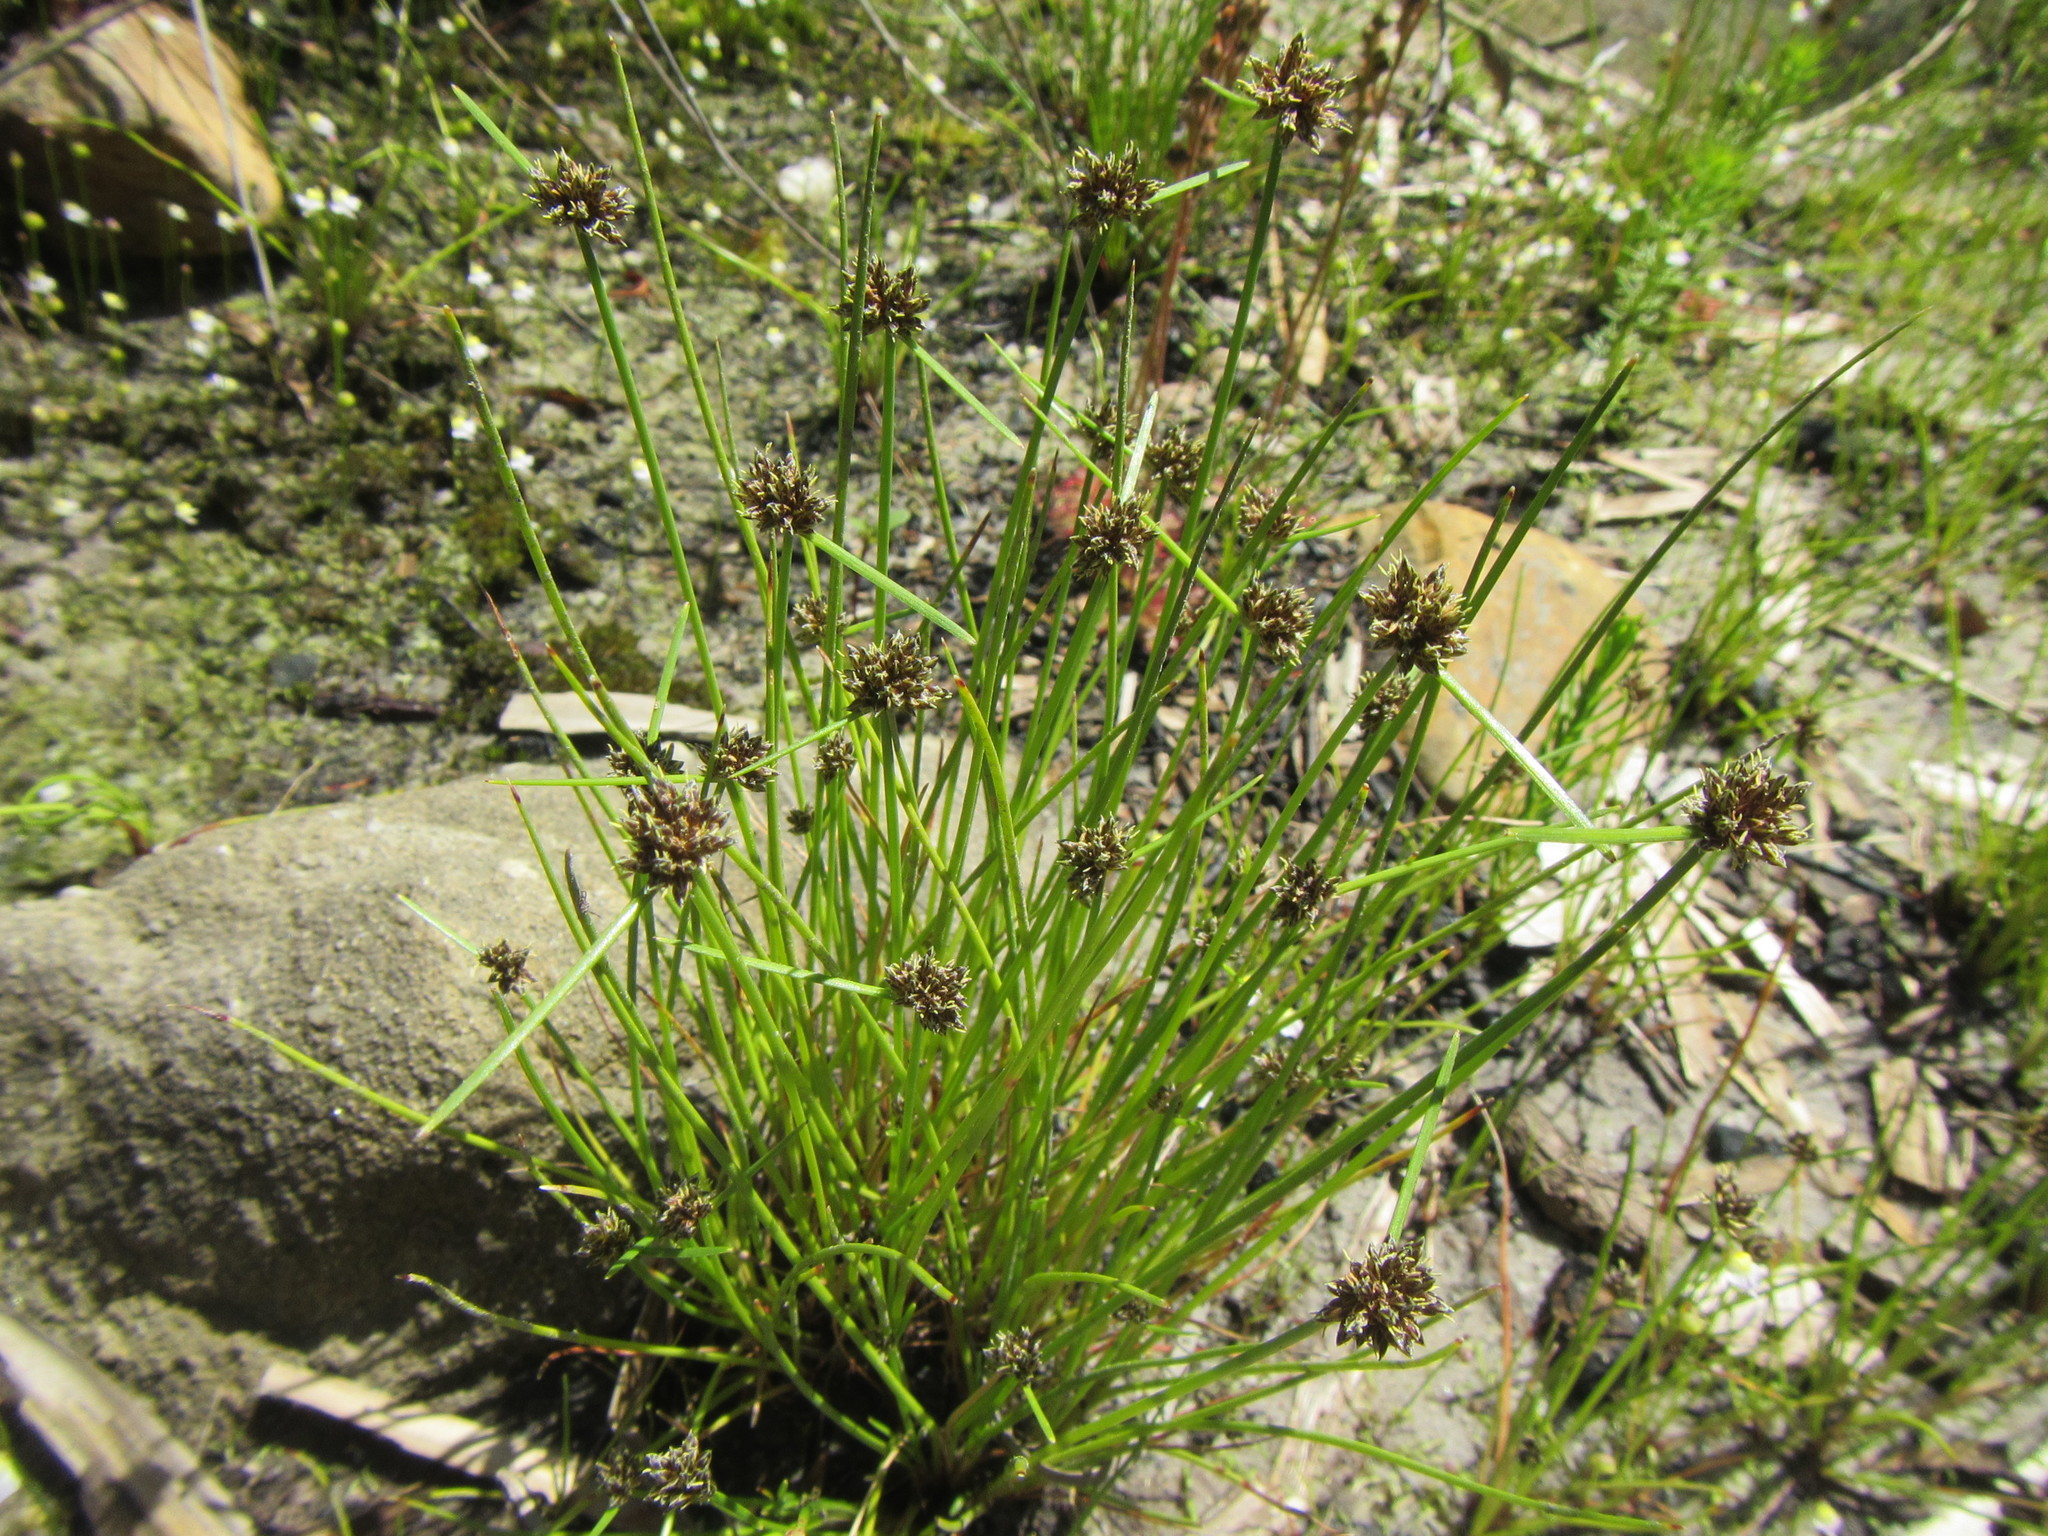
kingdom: Plantae
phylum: Tracheophyta
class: Liliopsida
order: Poales
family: Cyperaceae
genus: Isolepis
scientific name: Isolepis antarctica
